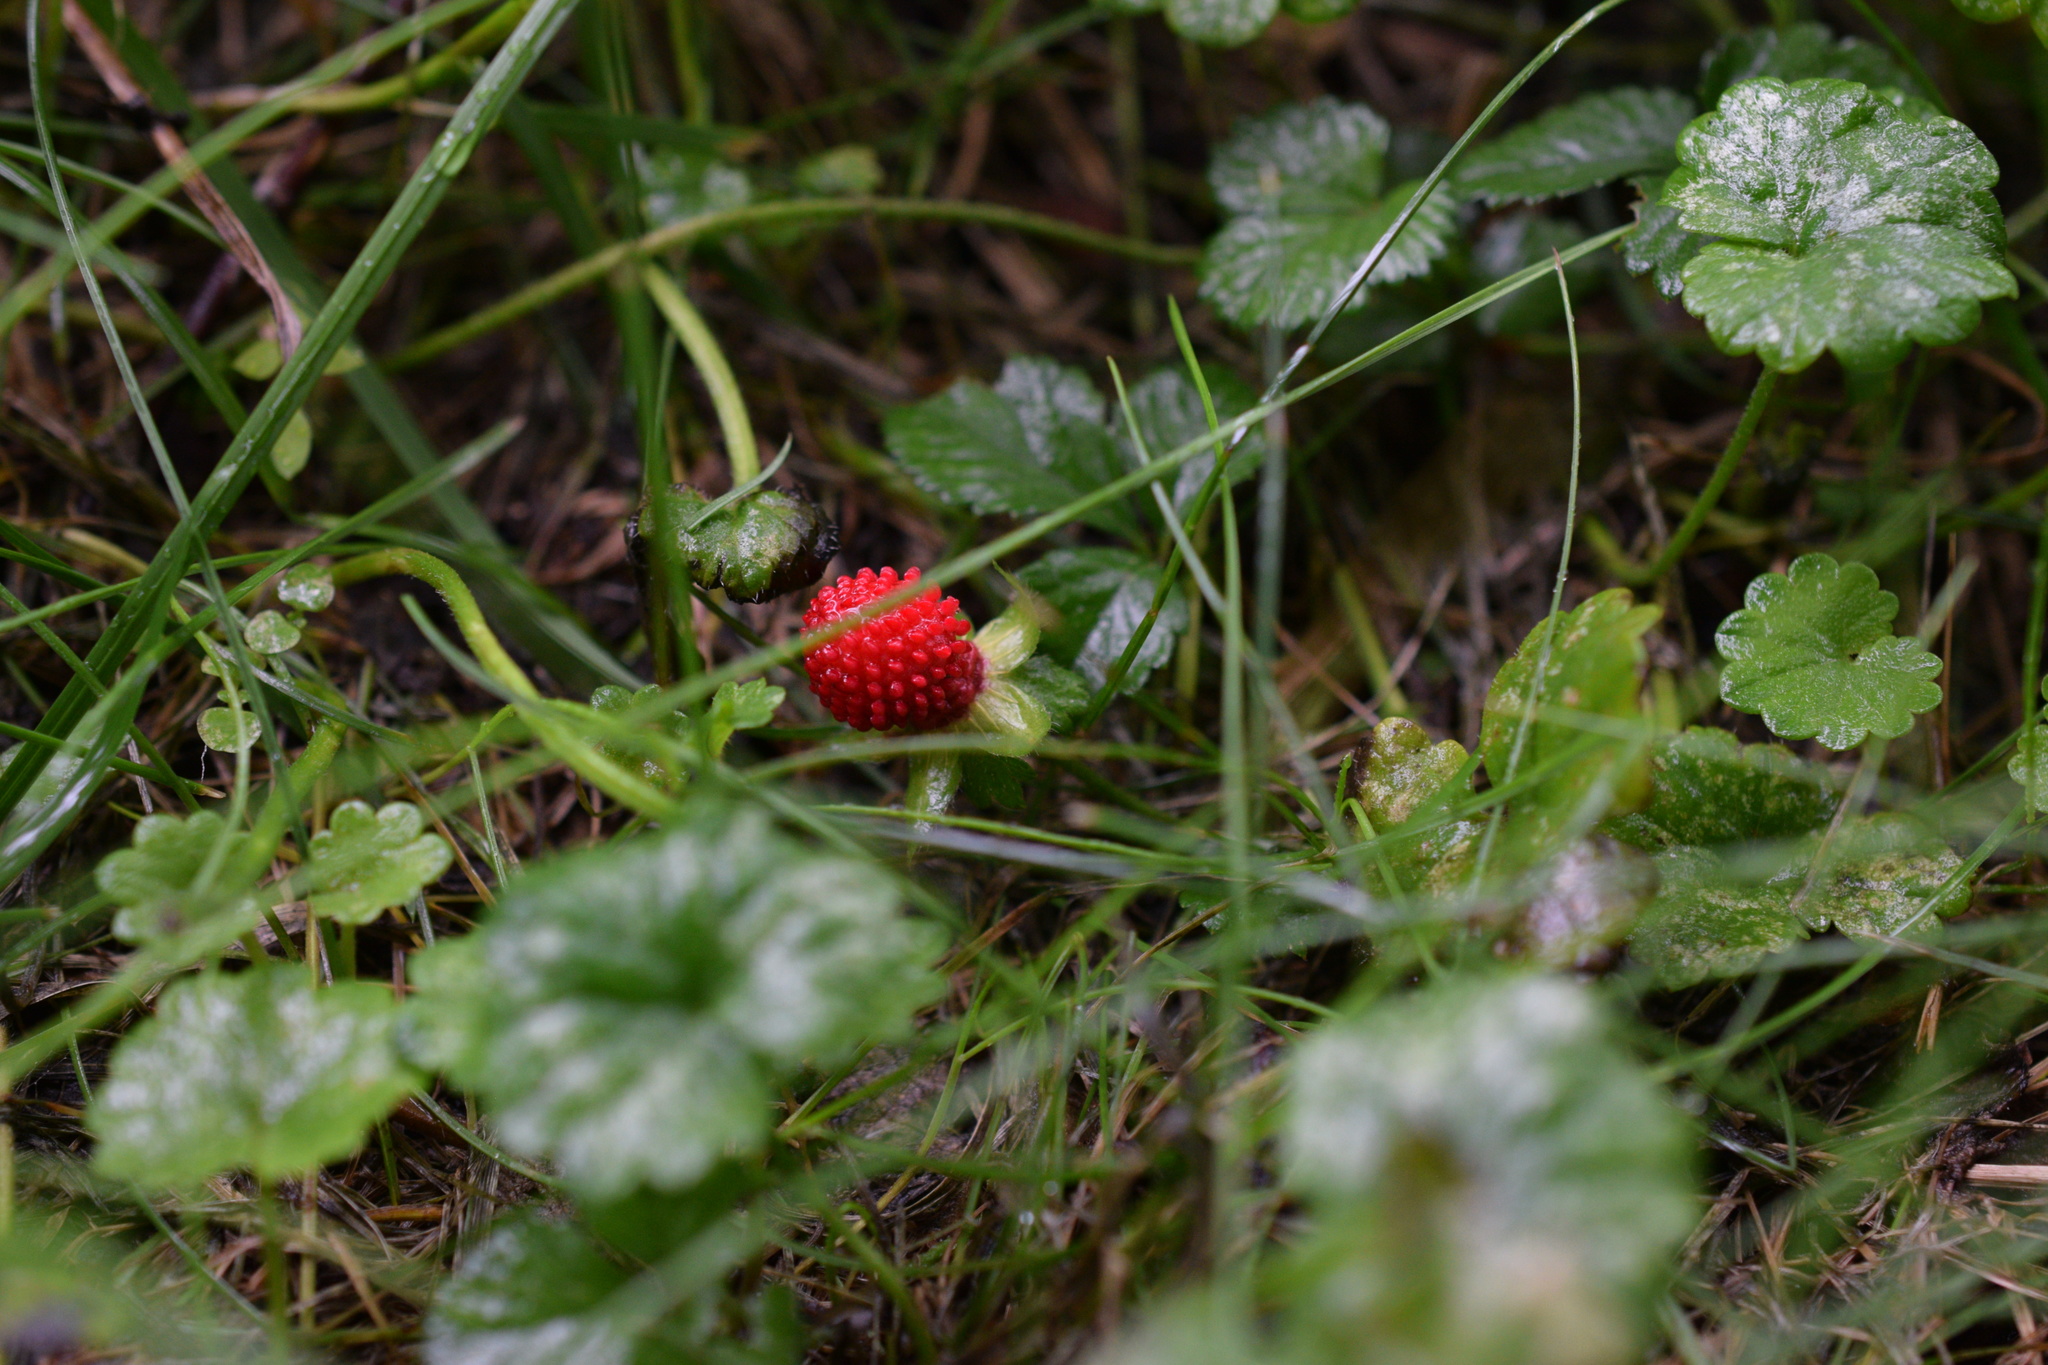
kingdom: Plantae
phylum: Tracheophyta
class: Magnoliopsida
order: Rosales
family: Rosaceae
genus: Potentilla
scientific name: Potentilla indica
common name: Yellow-flowered strawberry
